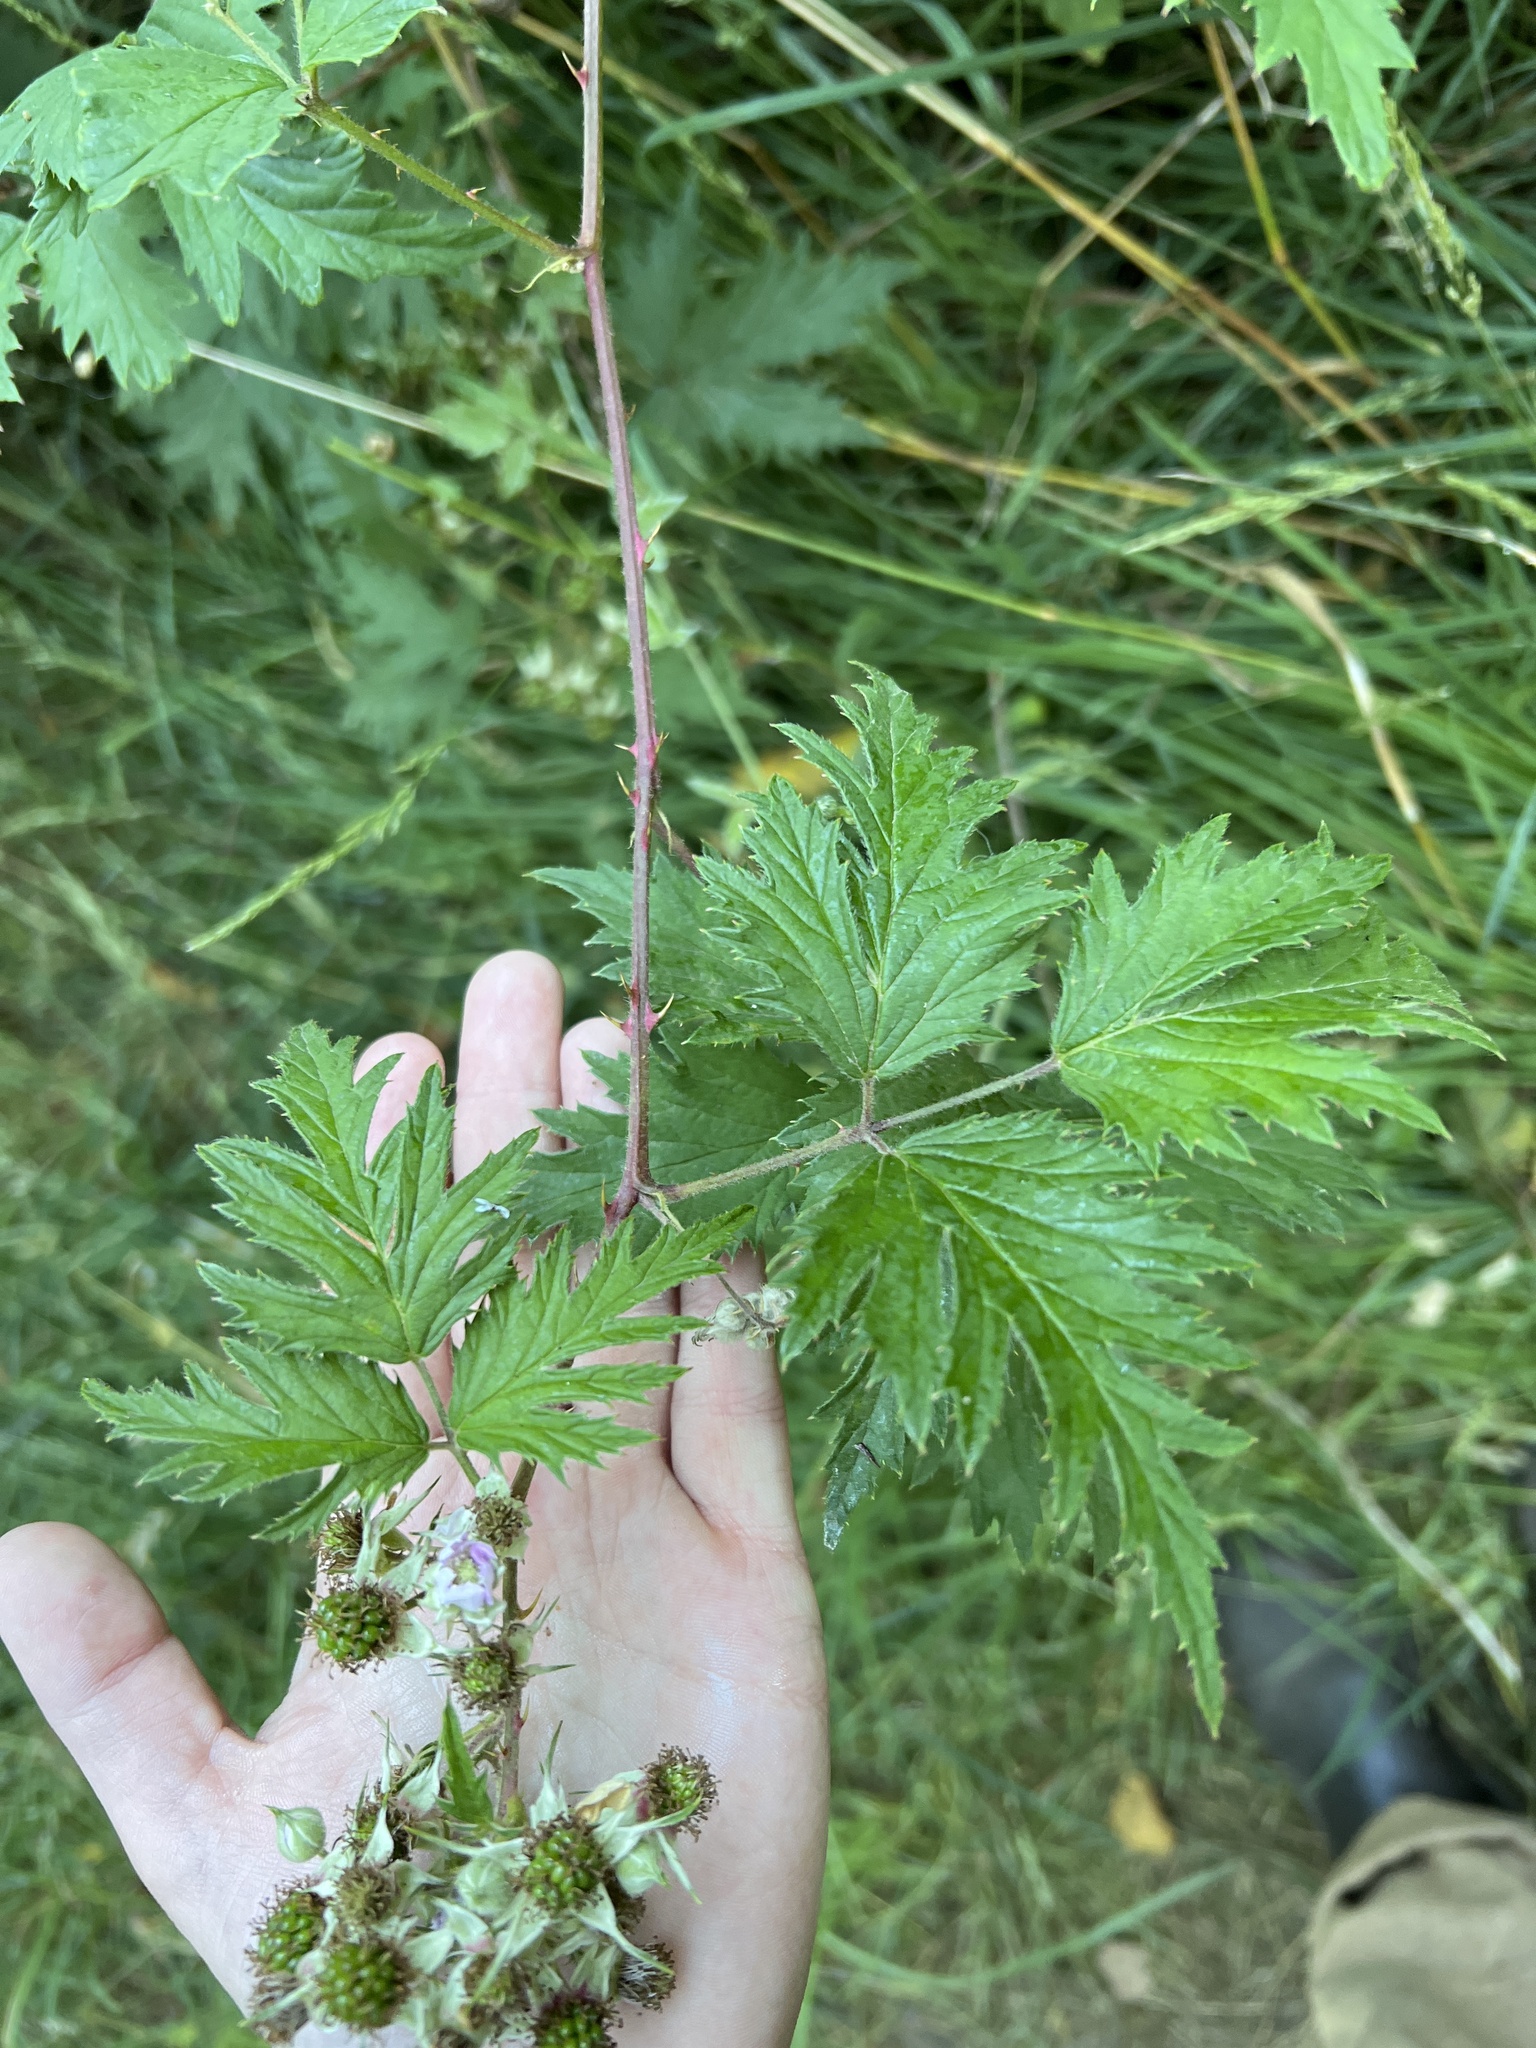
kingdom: Plantae
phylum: Tracheophyta
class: Magnoliopsida
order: Rosales
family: Rosaceae
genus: Rubus
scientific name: Rubus laciniatus
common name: Evergreen blackberry
